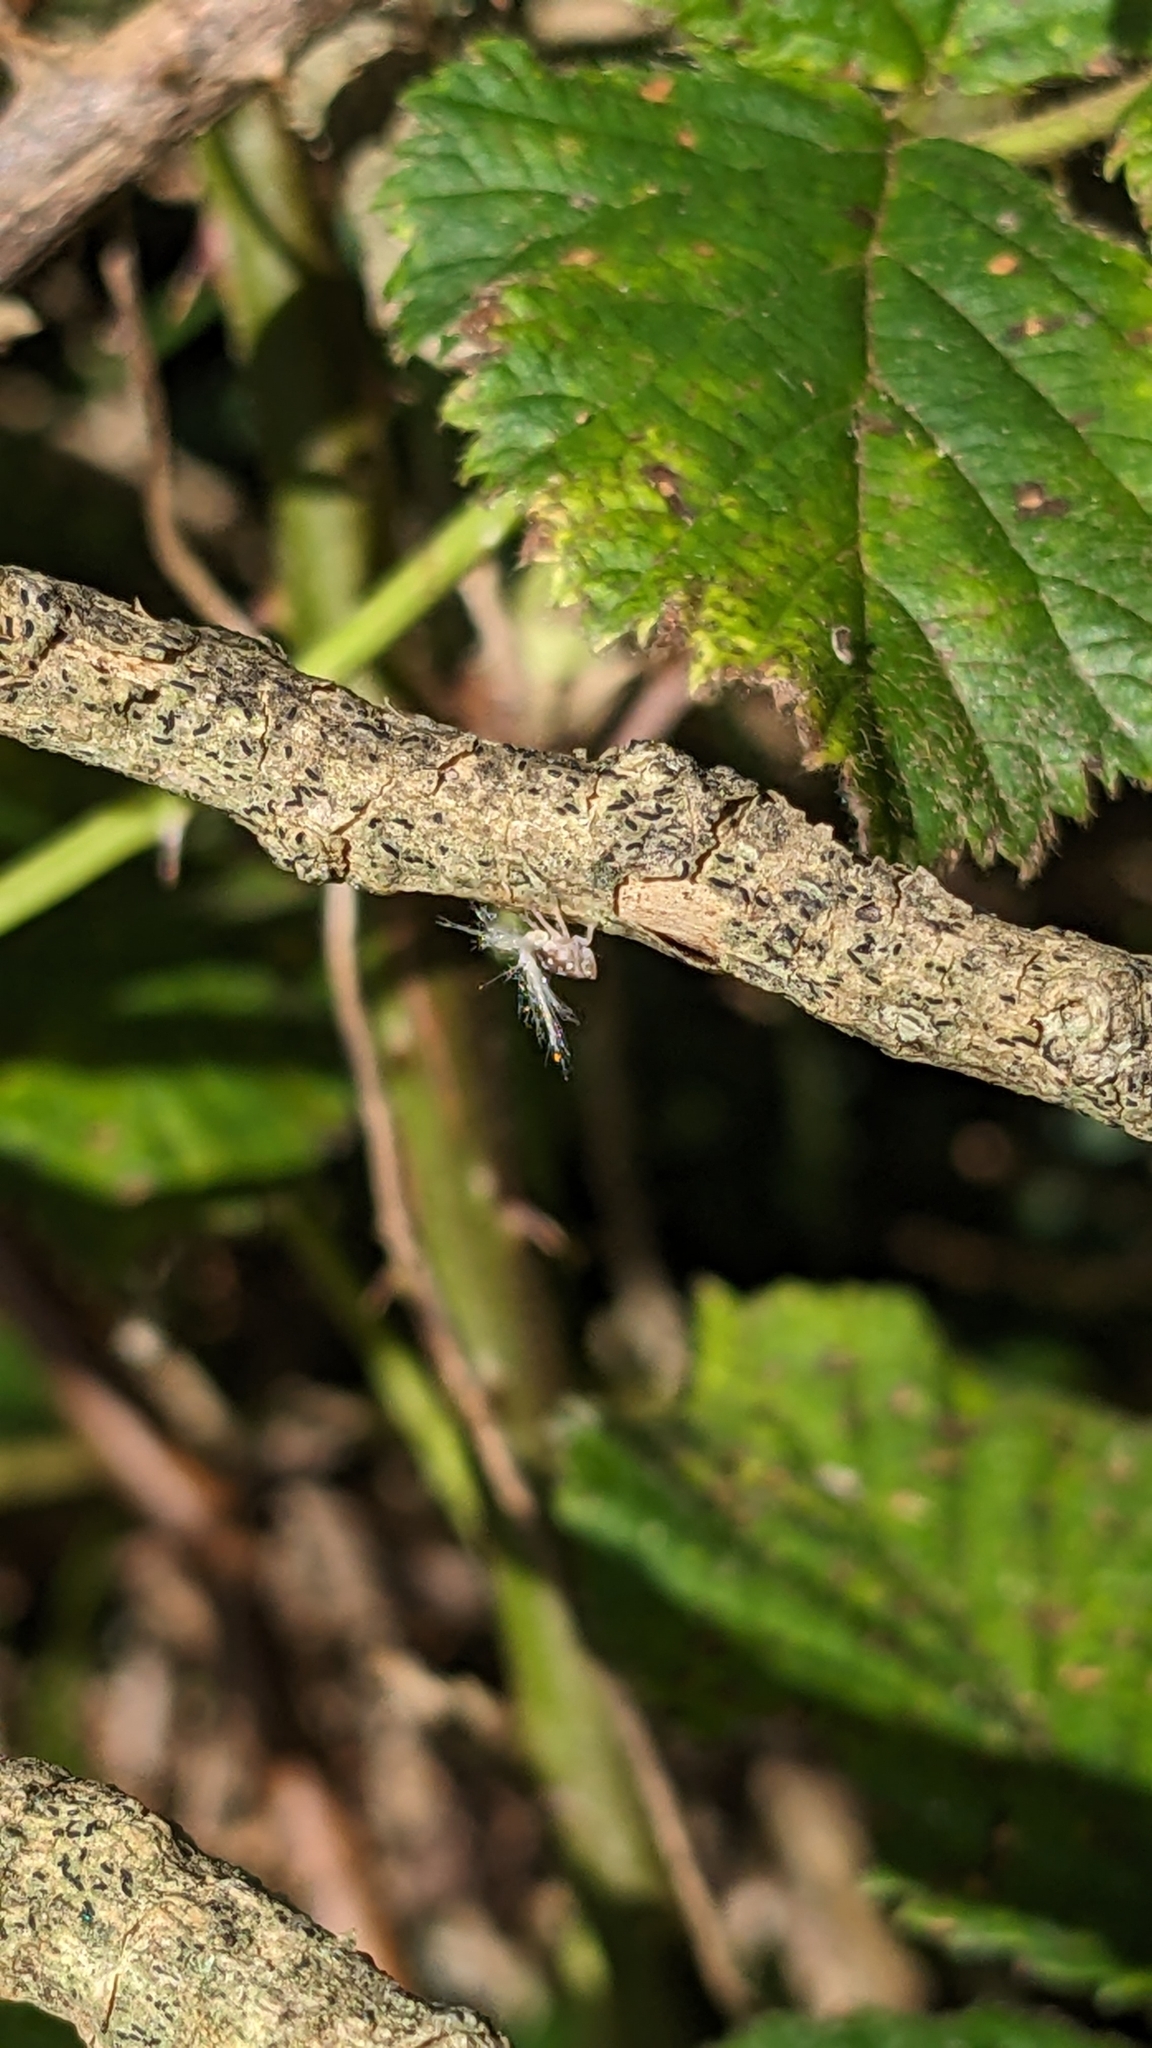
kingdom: Animalia
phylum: Arthropoda
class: Insecta
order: Hemiptera
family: Ricaniidae
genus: Scolypopa
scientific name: Scolypopa australis
